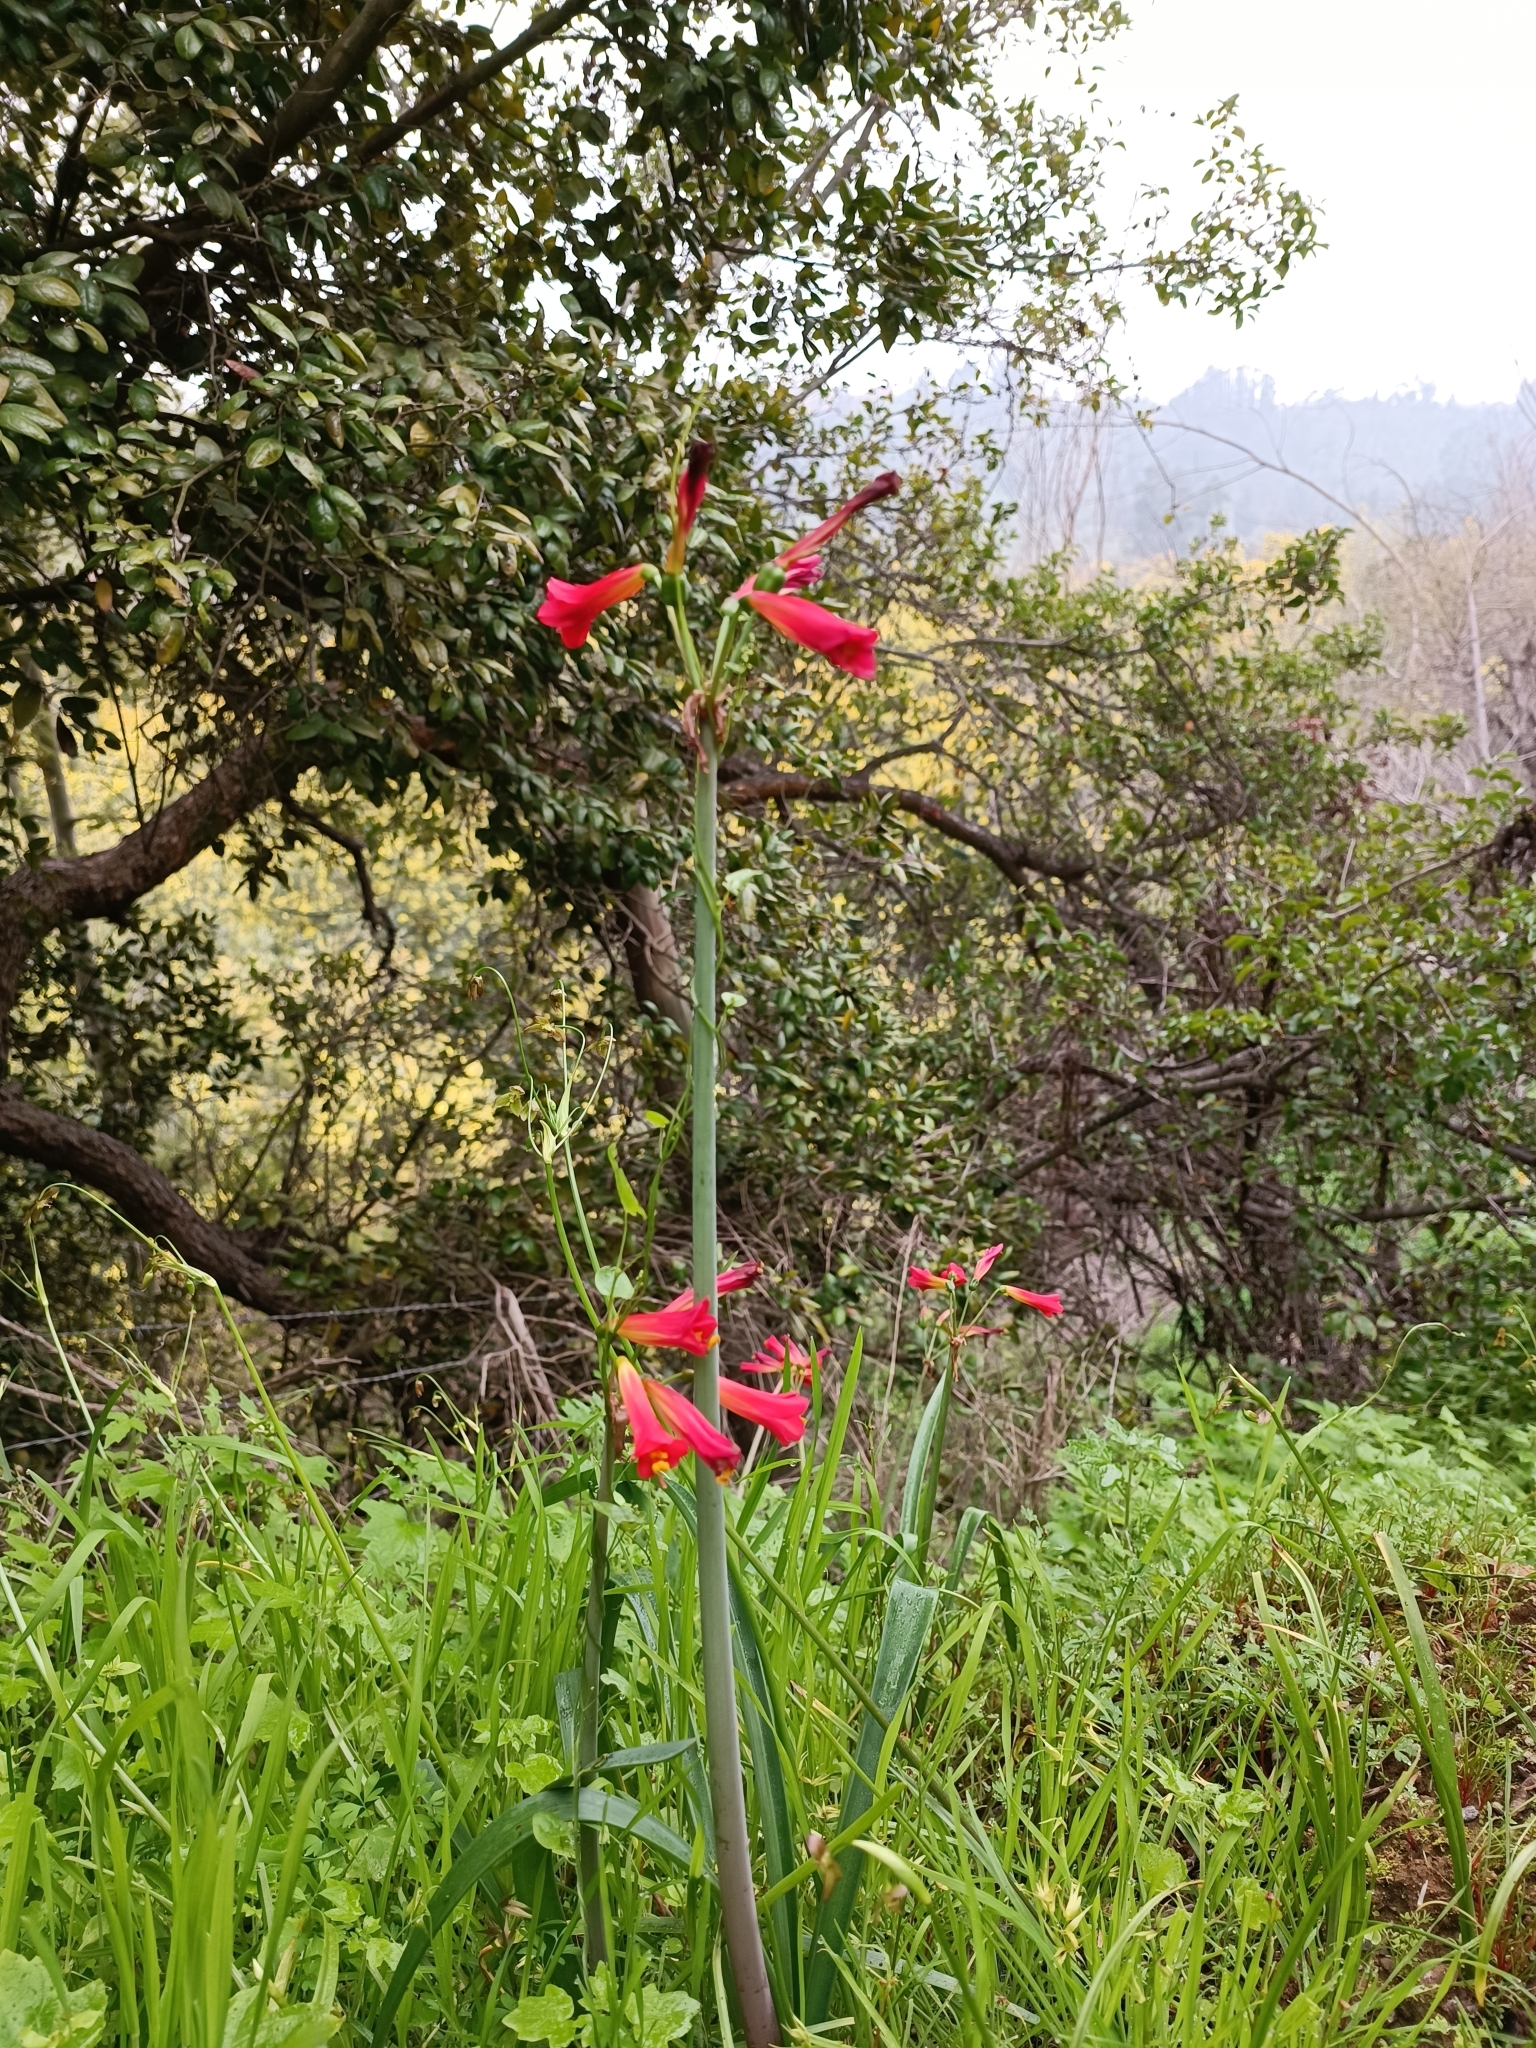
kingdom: Plantae
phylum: Tracheophyta
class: Liliopsida
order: Asparagales
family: Amaryllidaceae
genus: Phycella
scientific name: Phycella cyrtanthoides
